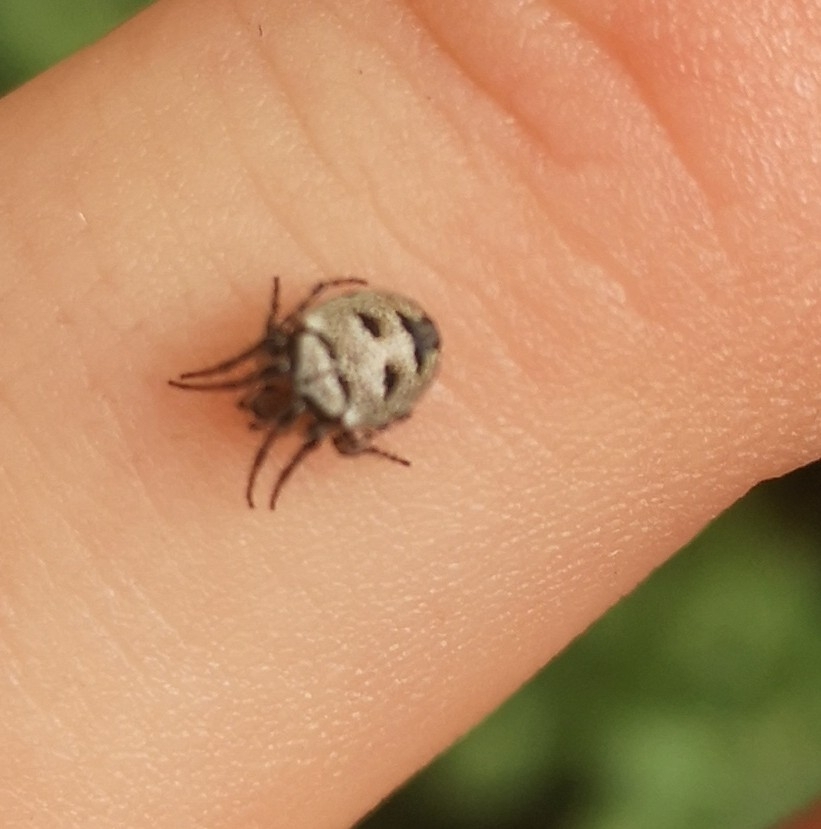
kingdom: Animalia
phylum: Arthropoda
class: Arachnida
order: Araneae
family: Araneidae
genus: Zilla
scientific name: Zilla diodia
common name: Zilla diodia
